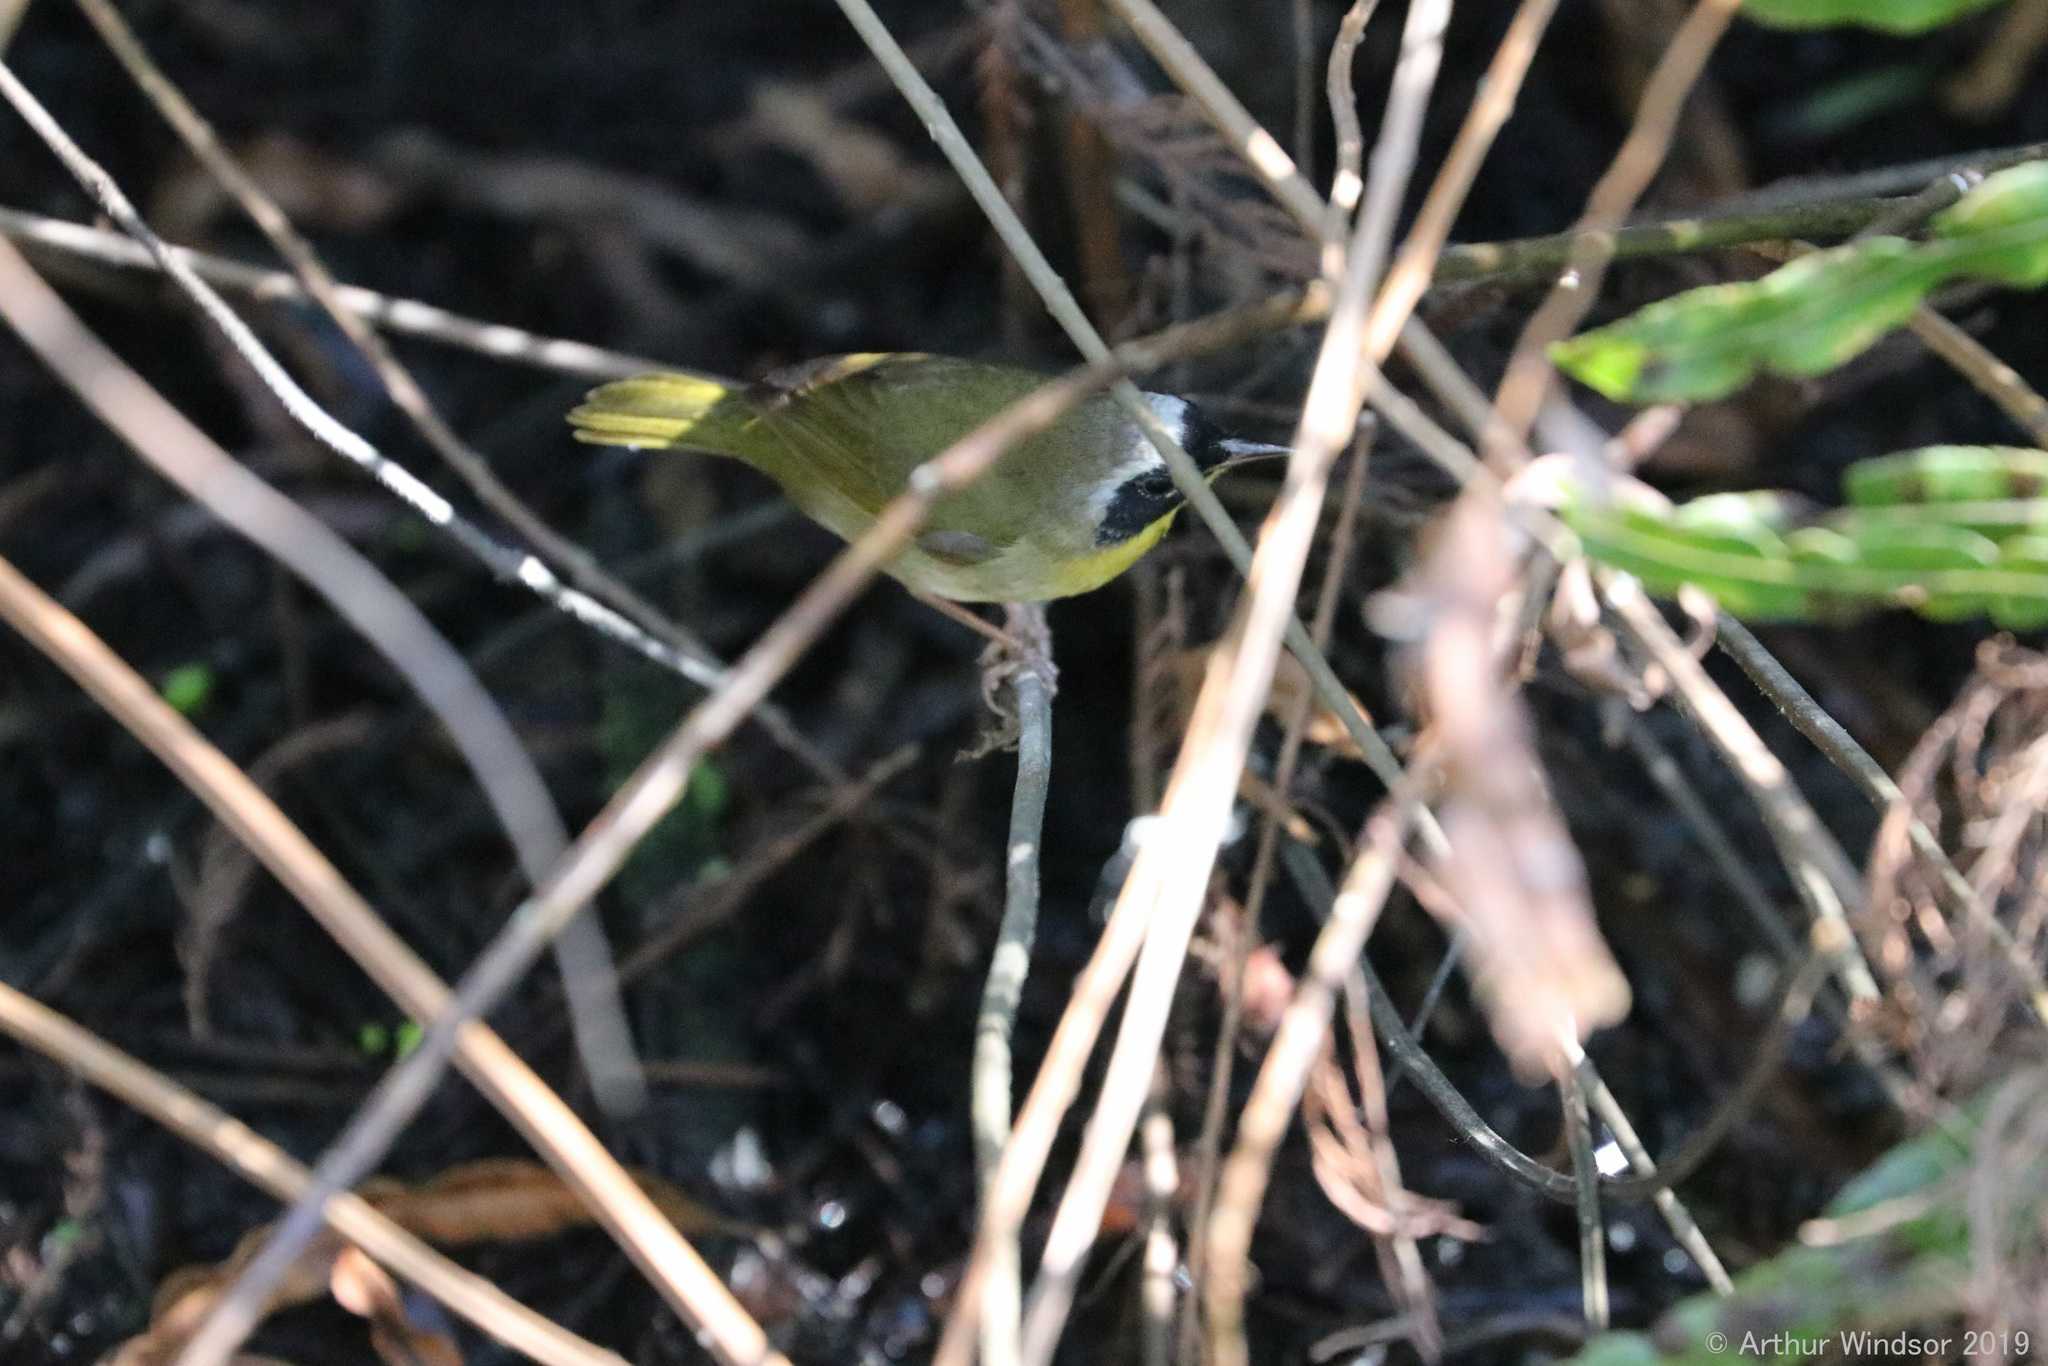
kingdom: Animalia
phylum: Chordata
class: Aves
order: Passeriformes
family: Parulidae
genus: Geothlypis
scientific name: Geothlypis trichas
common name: Common yellowthroat
